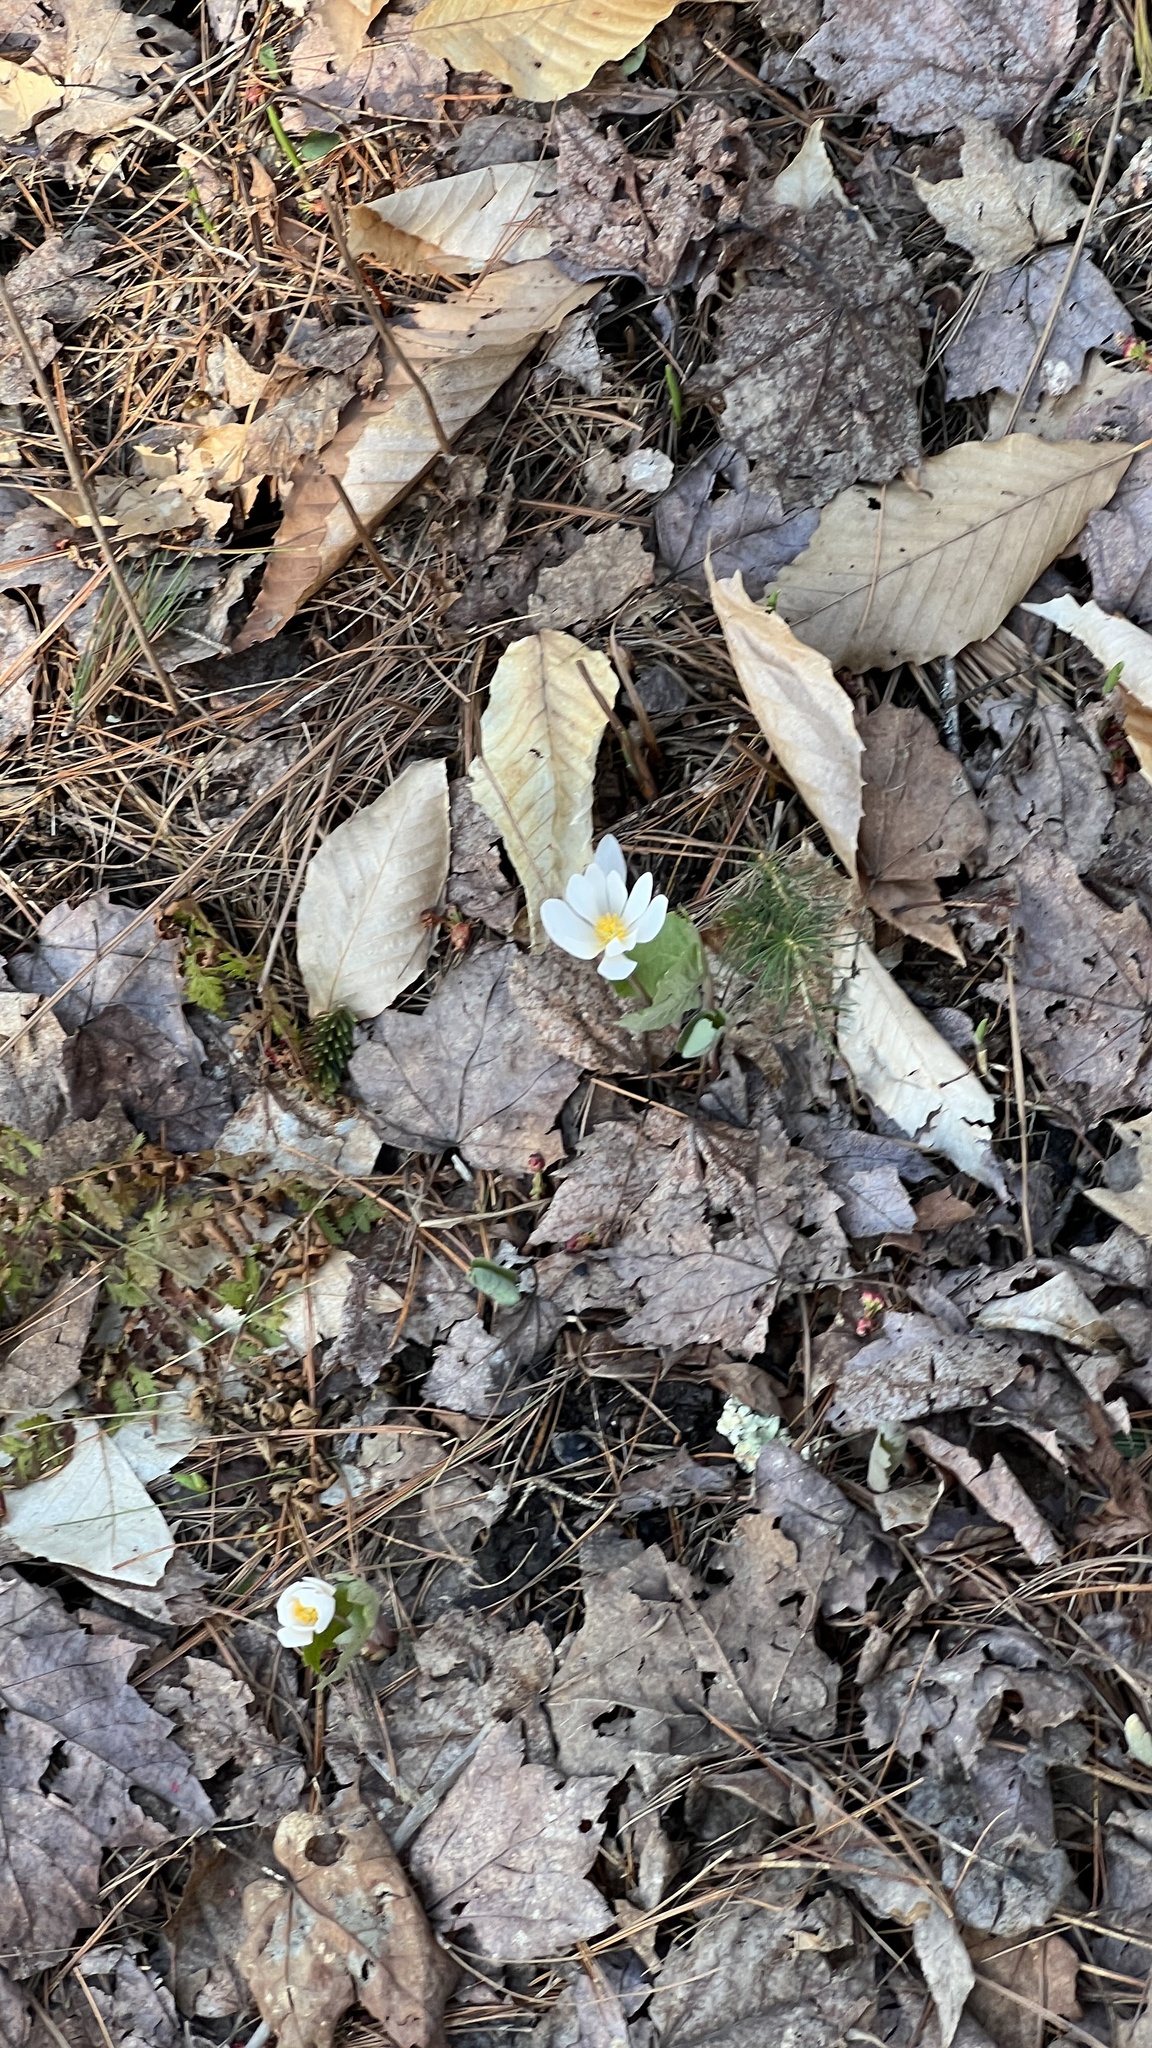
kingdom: Plantae
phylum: Tracheophyta
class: Magnoliopsida
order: Ranunculales
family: Papaveraceae
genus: Sanguinaria
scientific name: Sanguinaria canadensis
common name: Bloodroot
